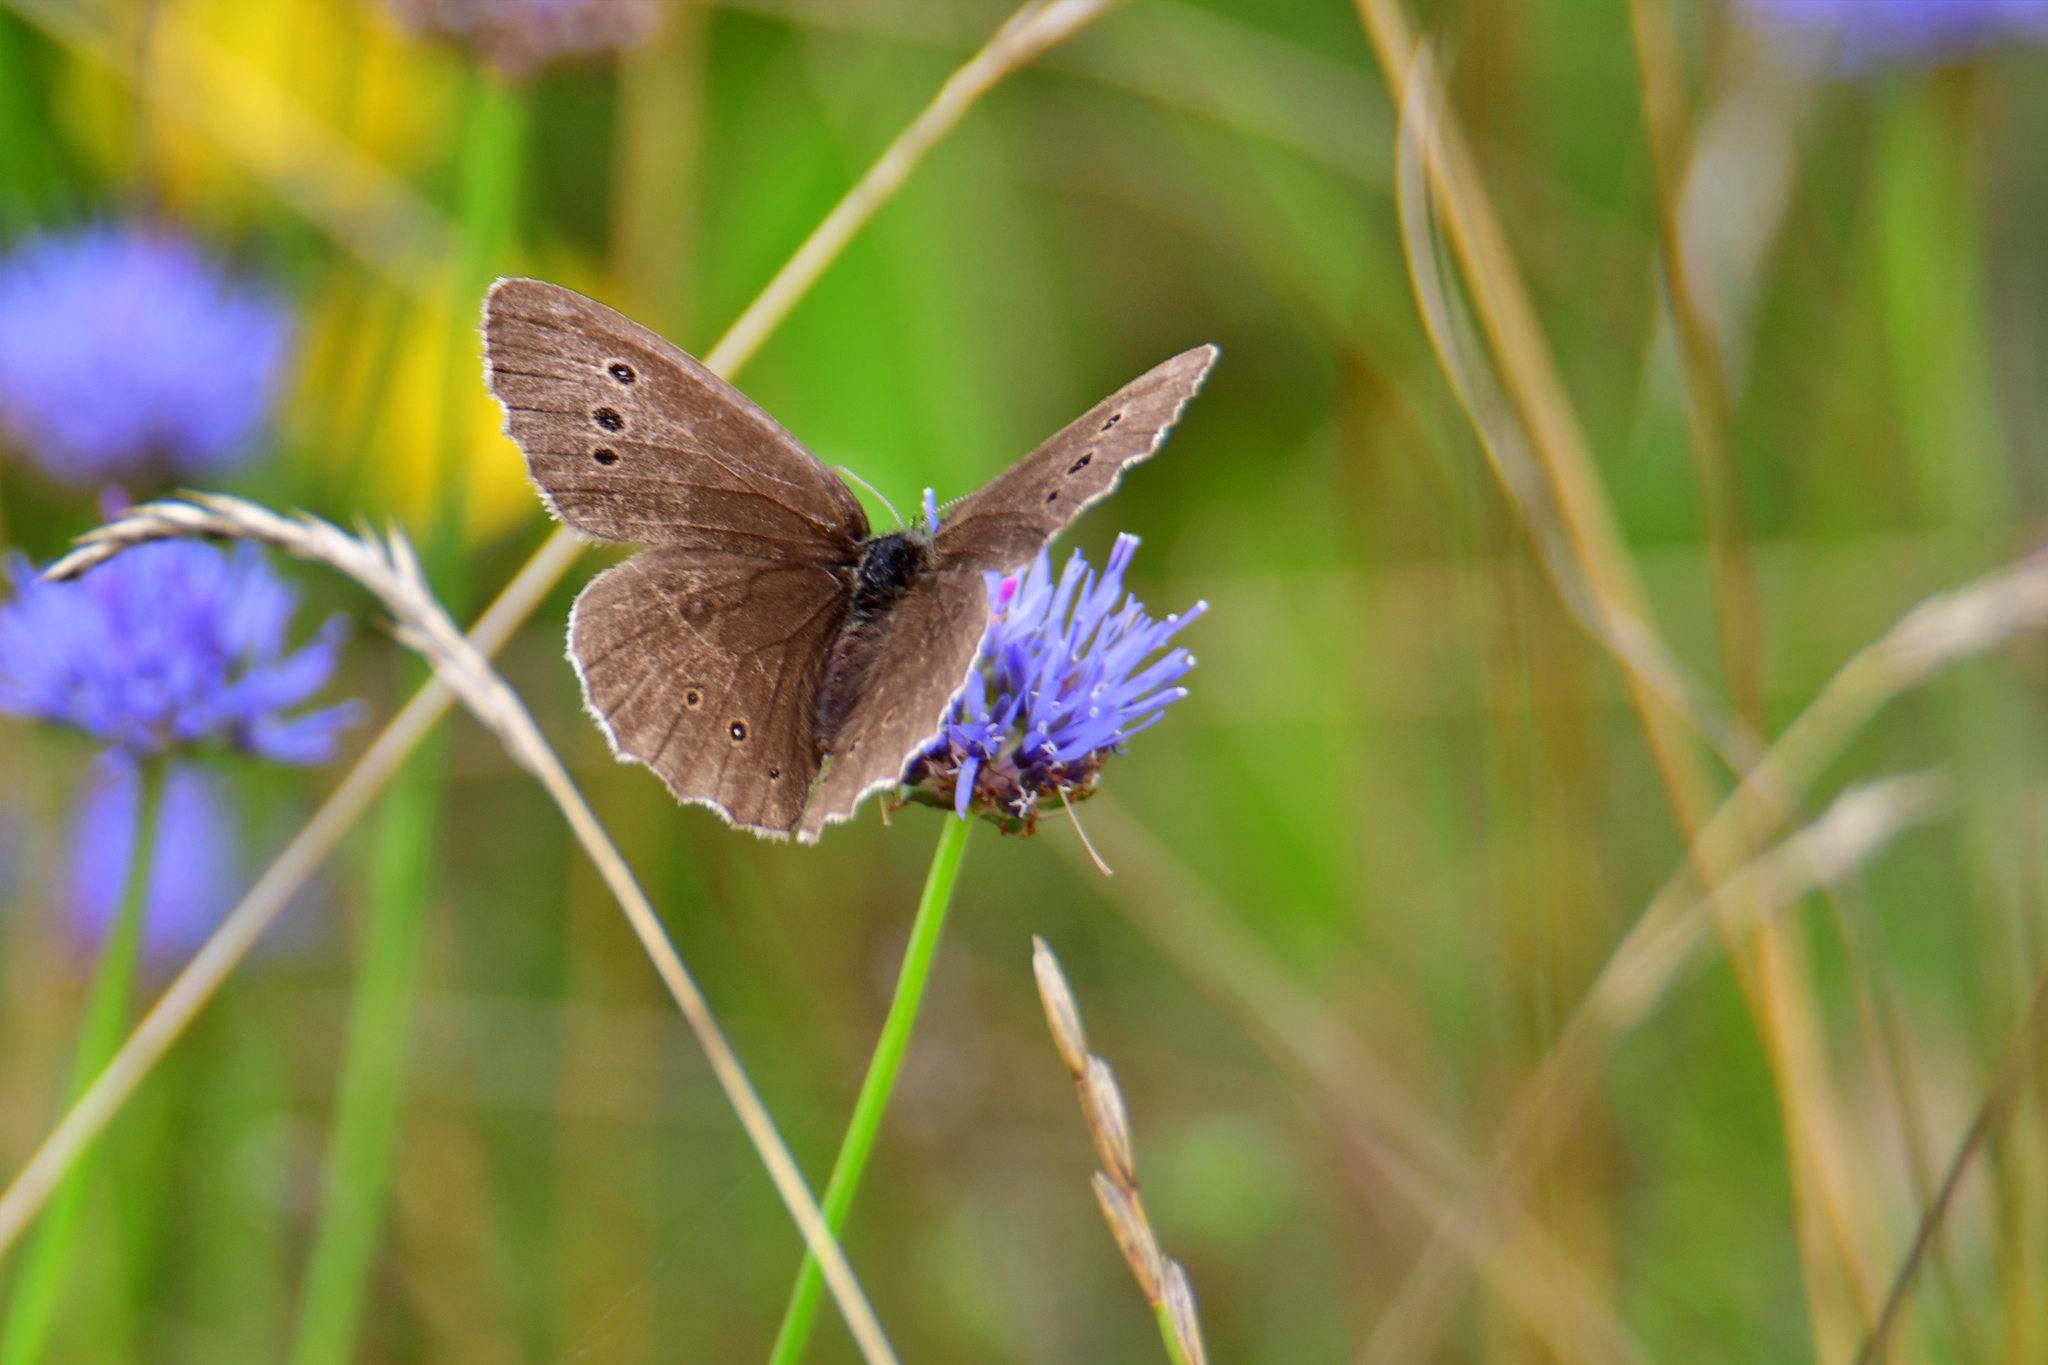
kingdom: Animalia
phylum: Arthropoda
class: Insecta
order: Lepidoptera
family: Nymphalidae
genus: Aphantopus
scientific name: Aphantopus hyperantus
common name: Ringlet
